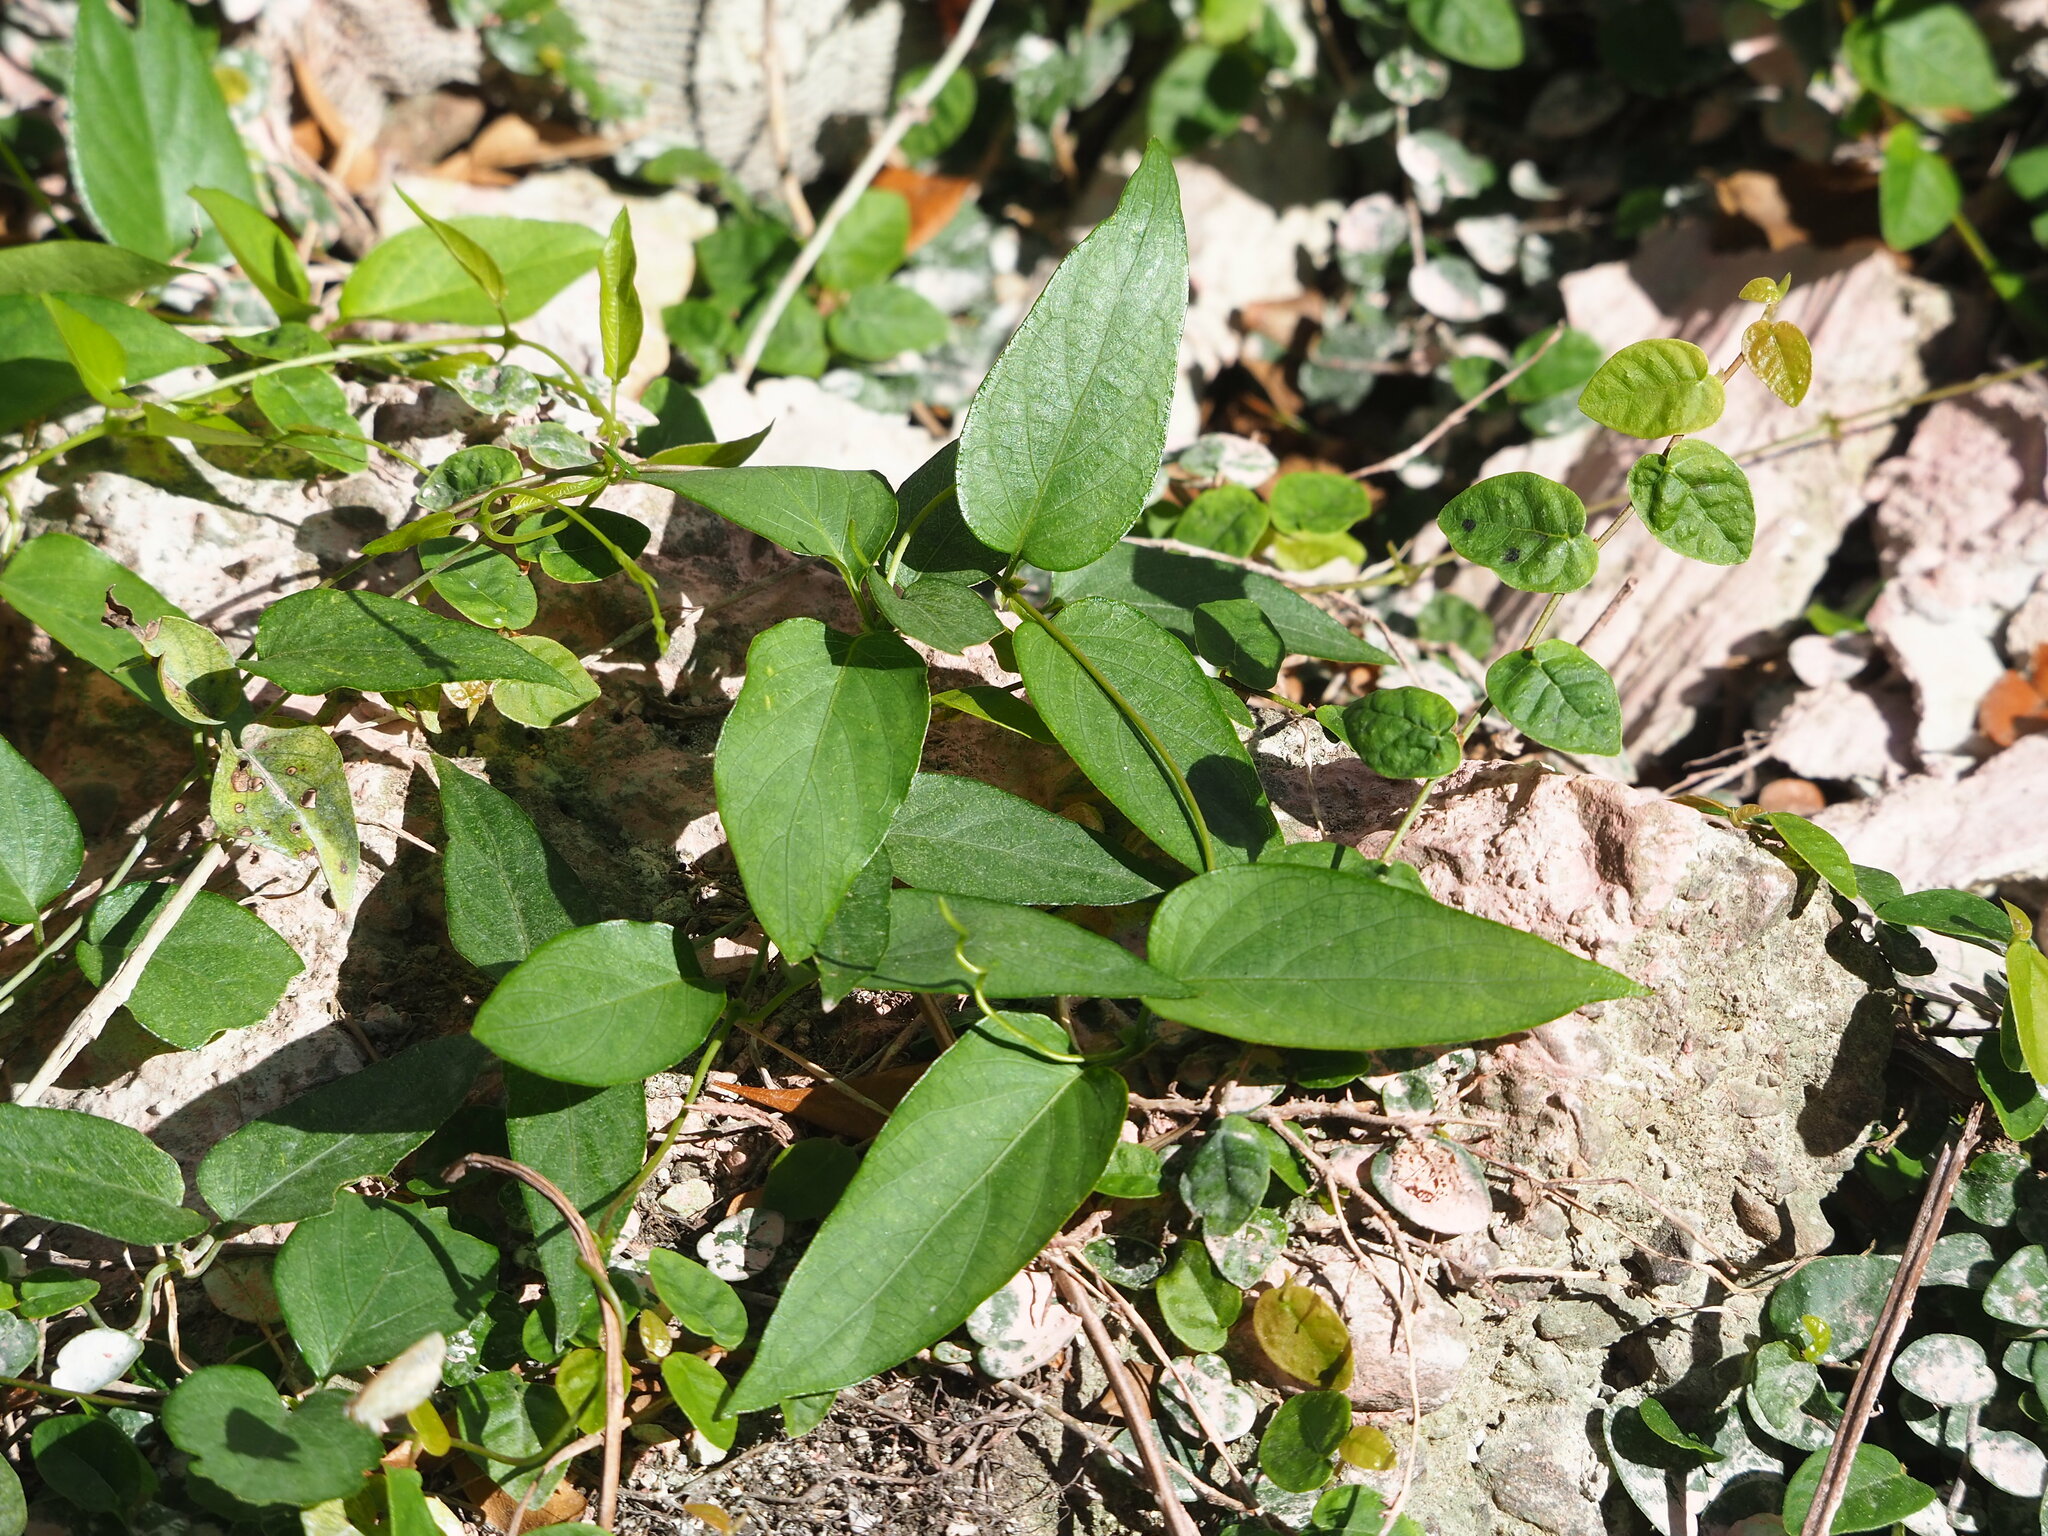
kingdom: Plantae
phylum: Tracheophyta
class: Magnoliopsida
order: Gentianales
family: Rubiaceae
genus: Paederia
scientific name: Paederia foetida
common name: Stinkvine
